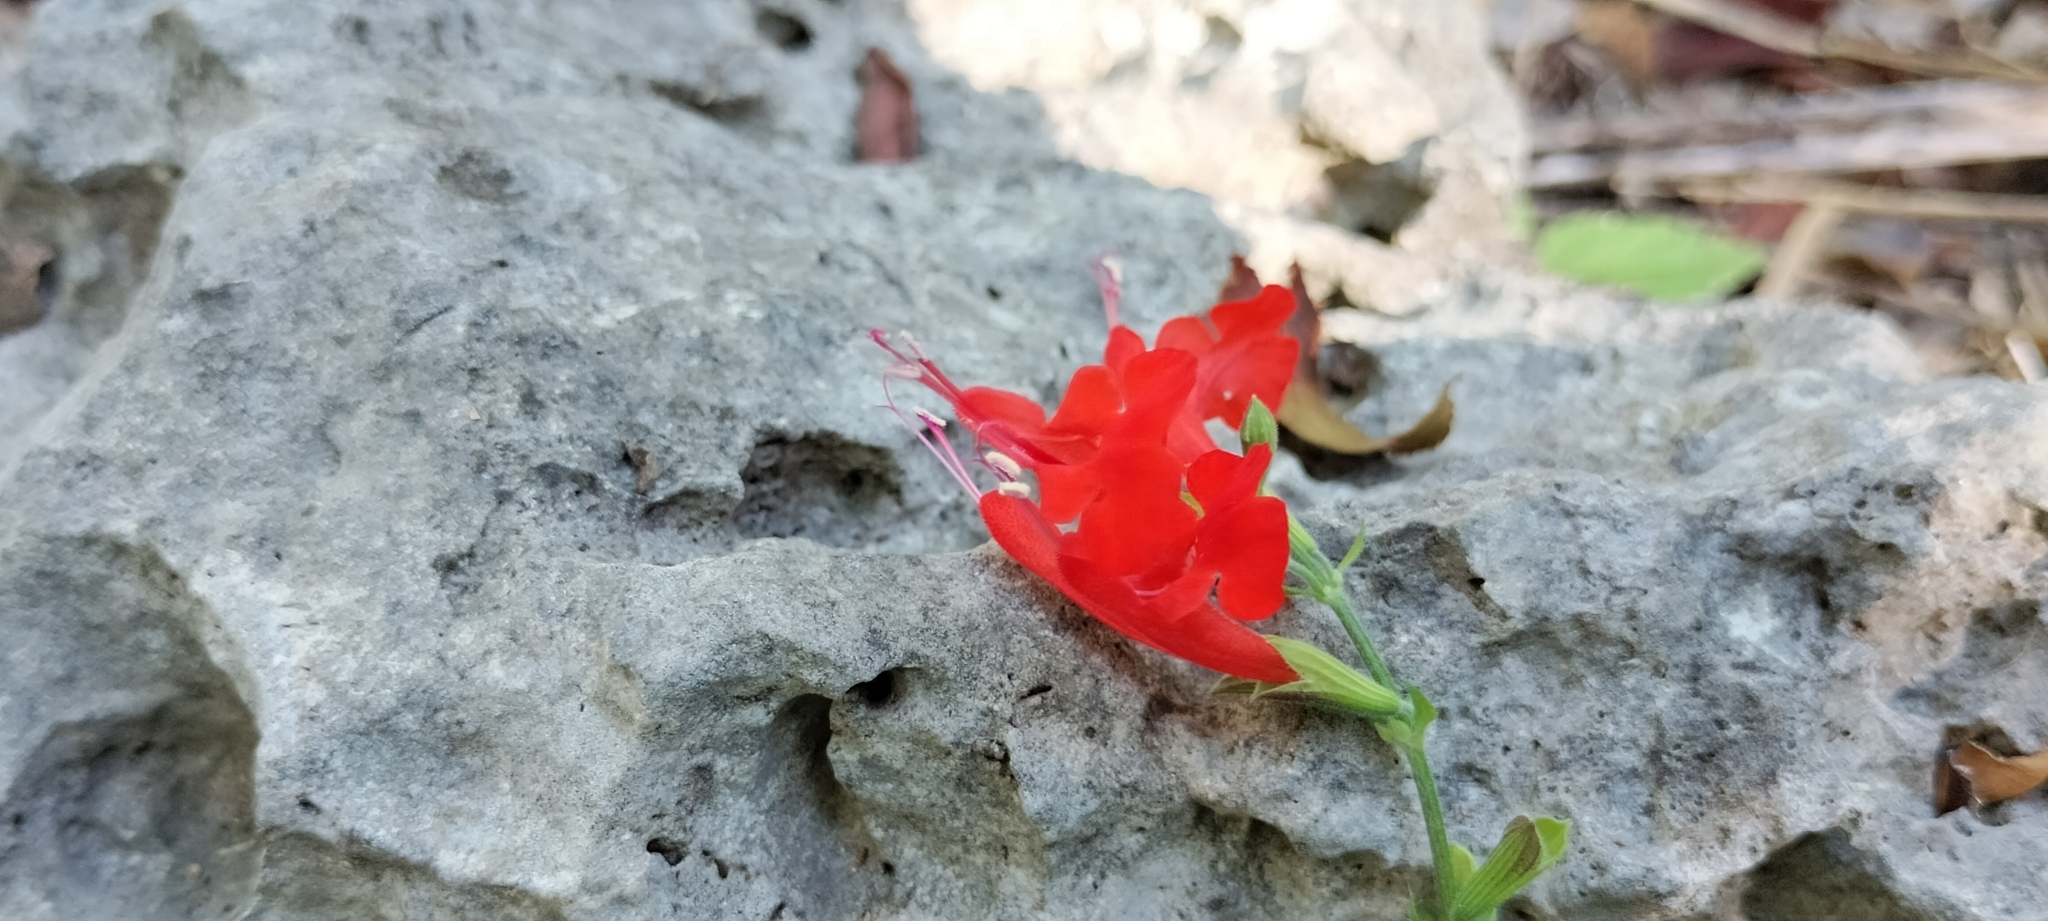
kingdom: Plantae
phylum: Tracheophyta
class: Magnoliopsida
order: Lamiales
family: Lamiaceae
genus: Salvia
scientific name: Salvia coccinea
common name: Blood sage
